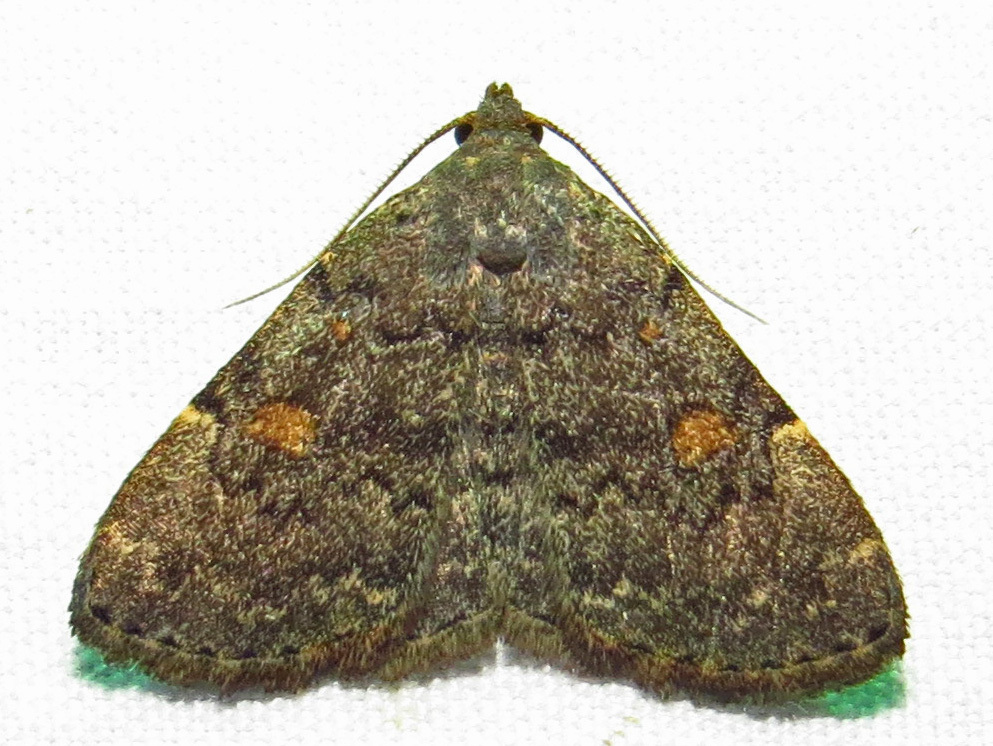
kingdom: Animalia
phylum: Arthropoda
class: Insecta
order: Lepidoptera
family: Erebidae
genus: Idia
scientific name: Idia aemula
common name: Common idia moth
